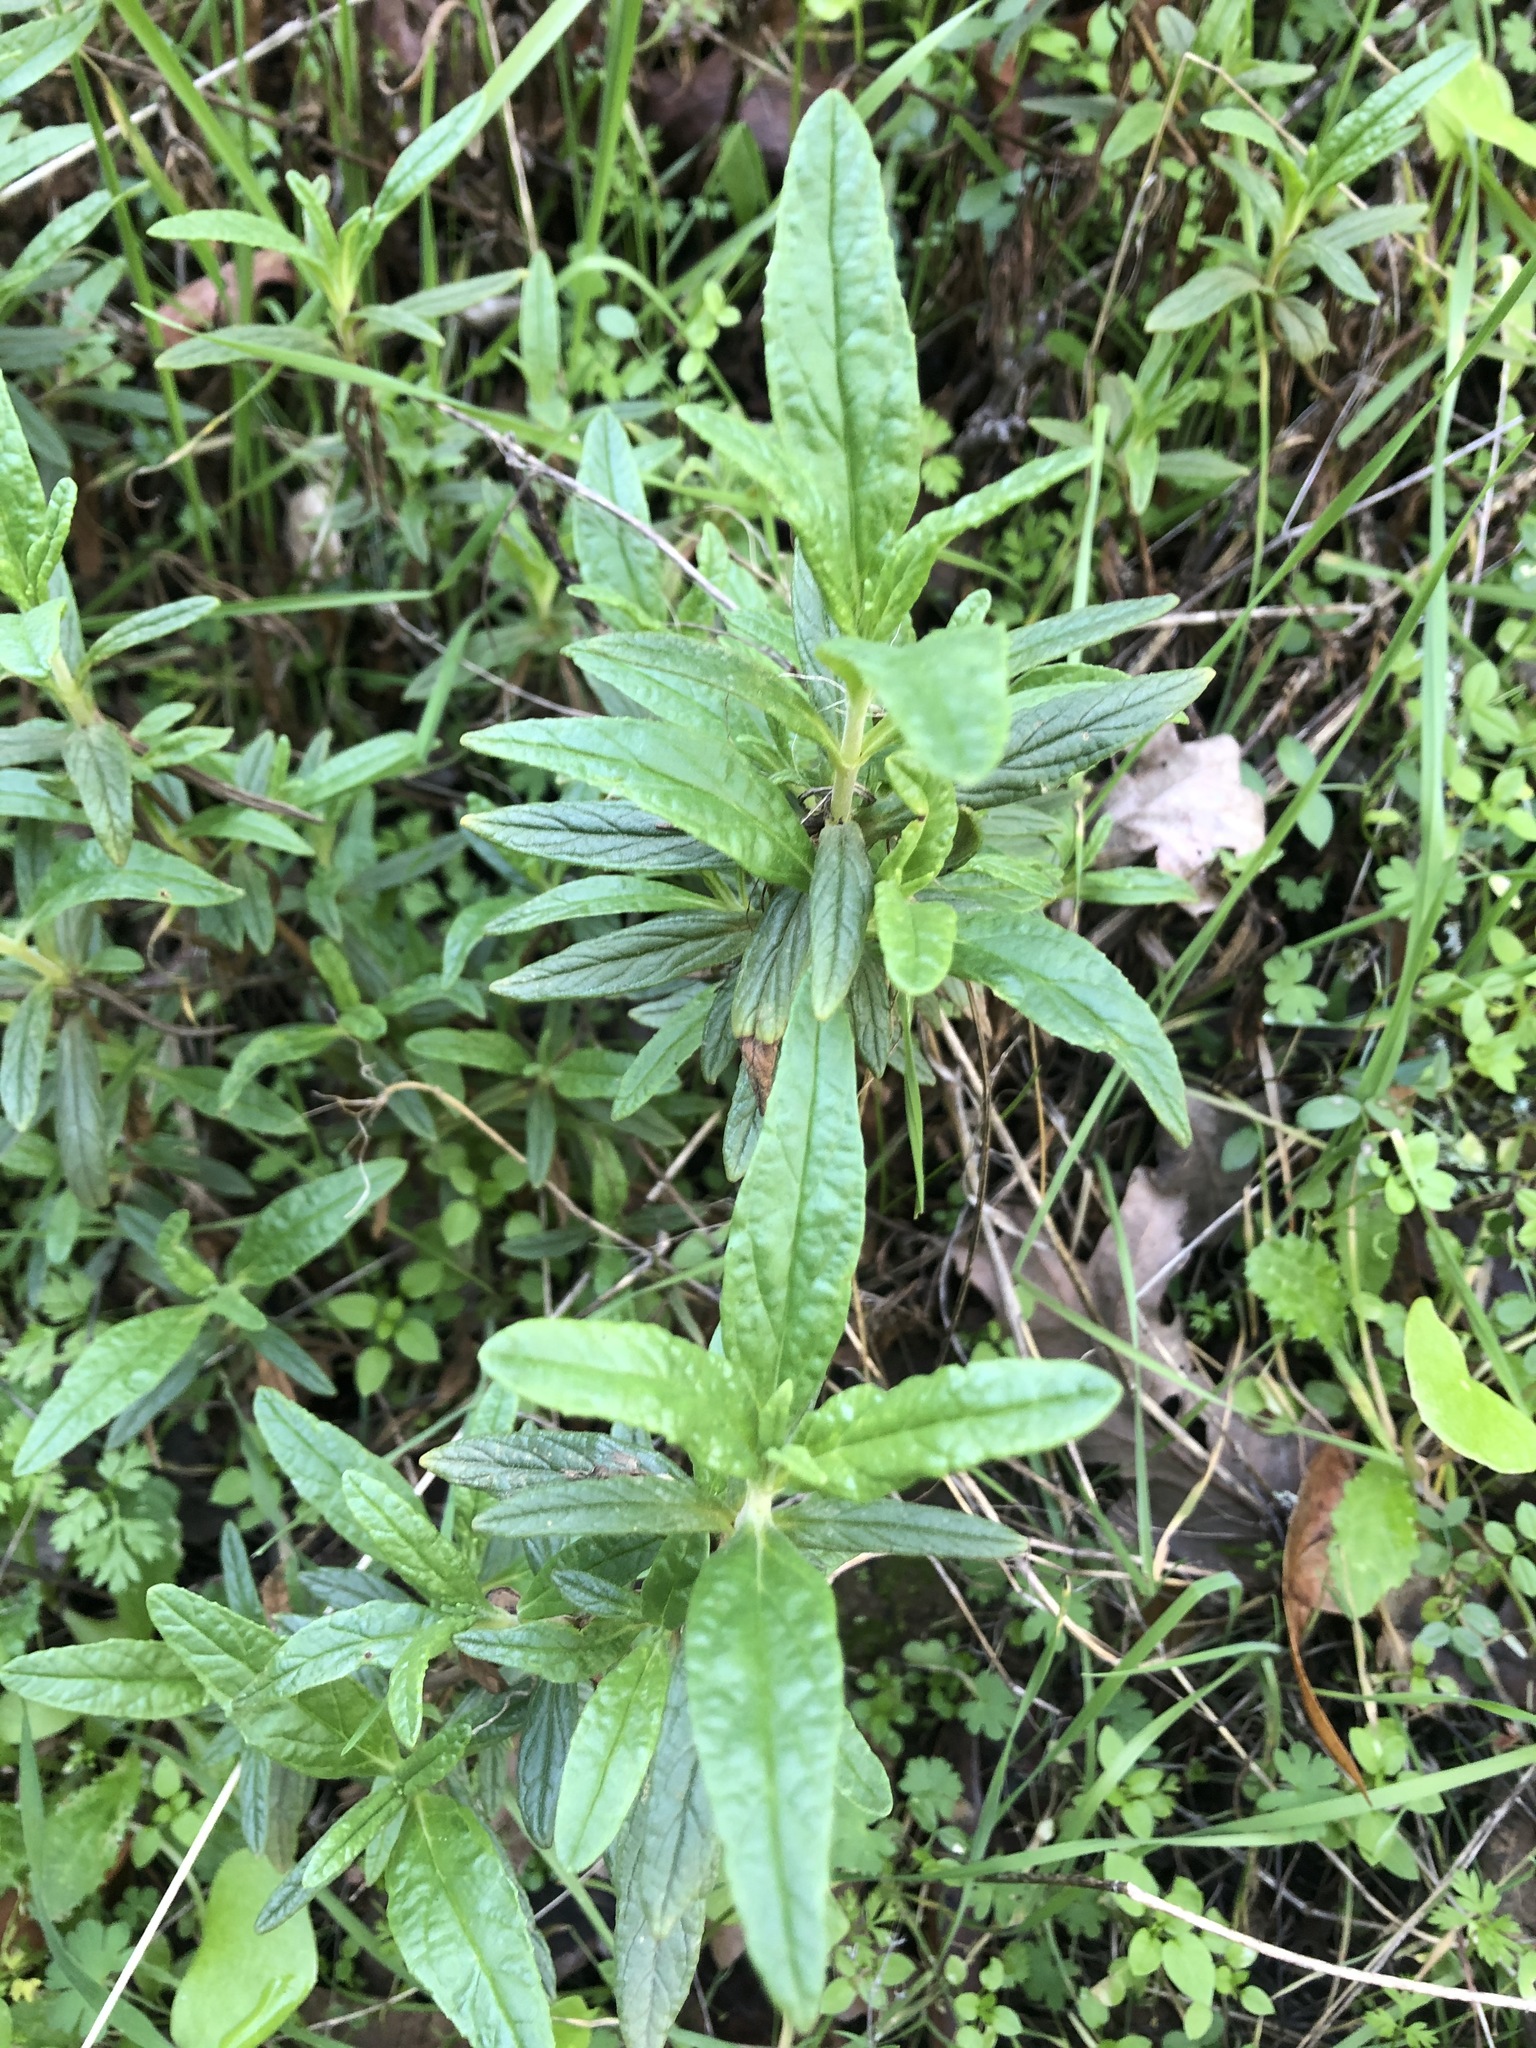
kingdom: Plantae
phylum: Tracheophyta
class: Magnoliopsida
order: Lamiales
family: Phrymaceae
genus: Diplacus
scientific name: Diplacus aurantiacus
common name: Bush monkey-flower
